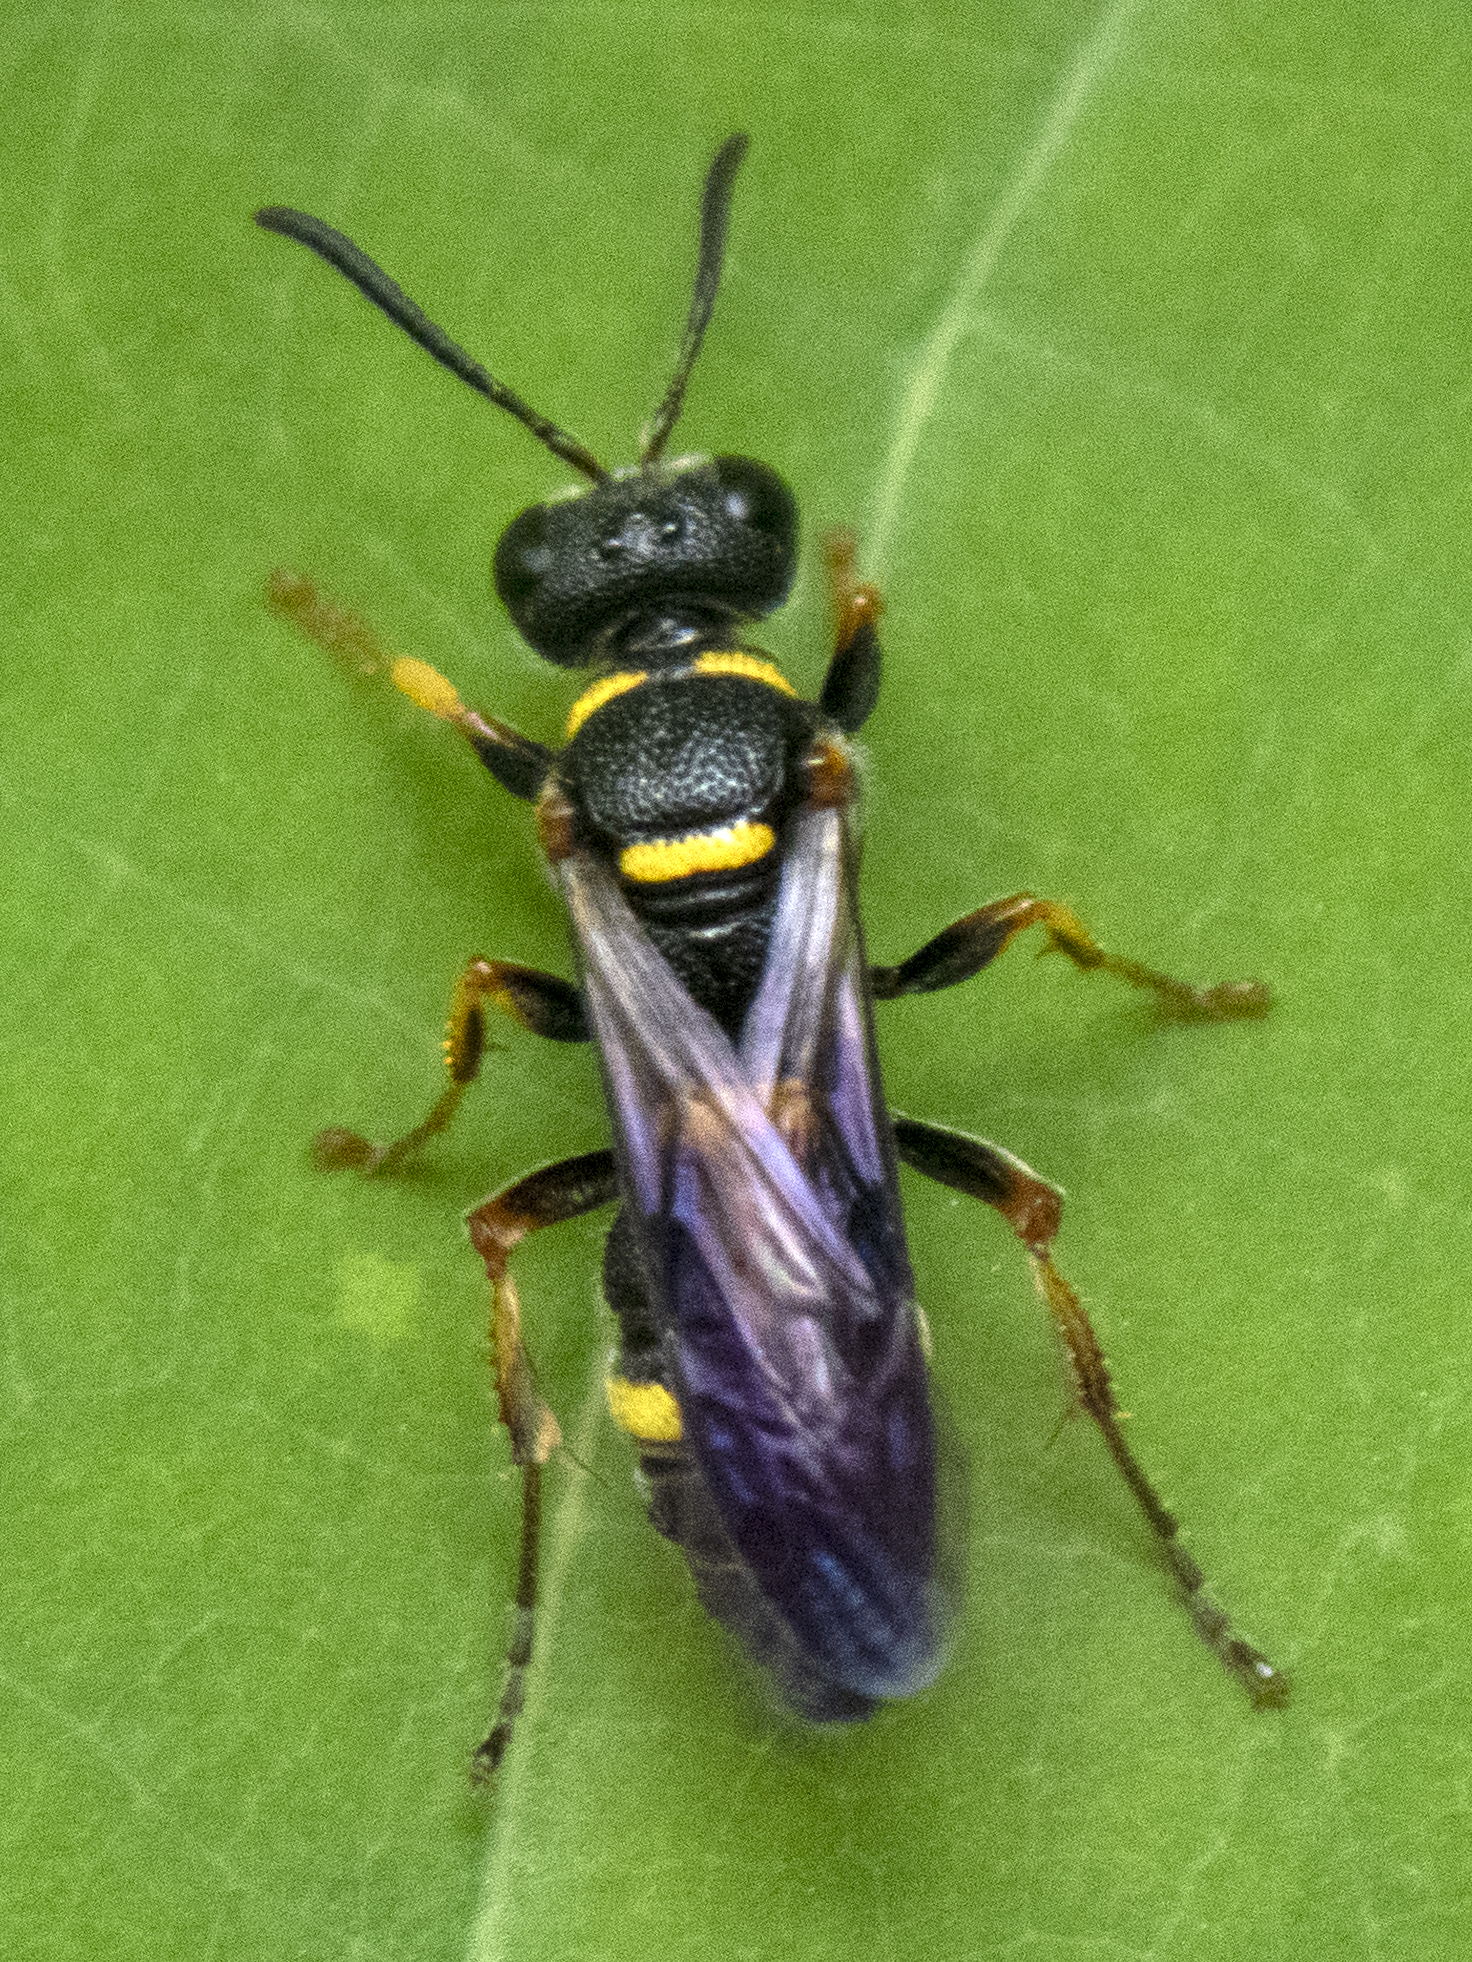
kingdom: Animalia
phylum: Arthropoda
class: Insecta
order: Hymenoptera
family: Crabronidae
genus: Cerceris
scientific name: Cerceris insolita
